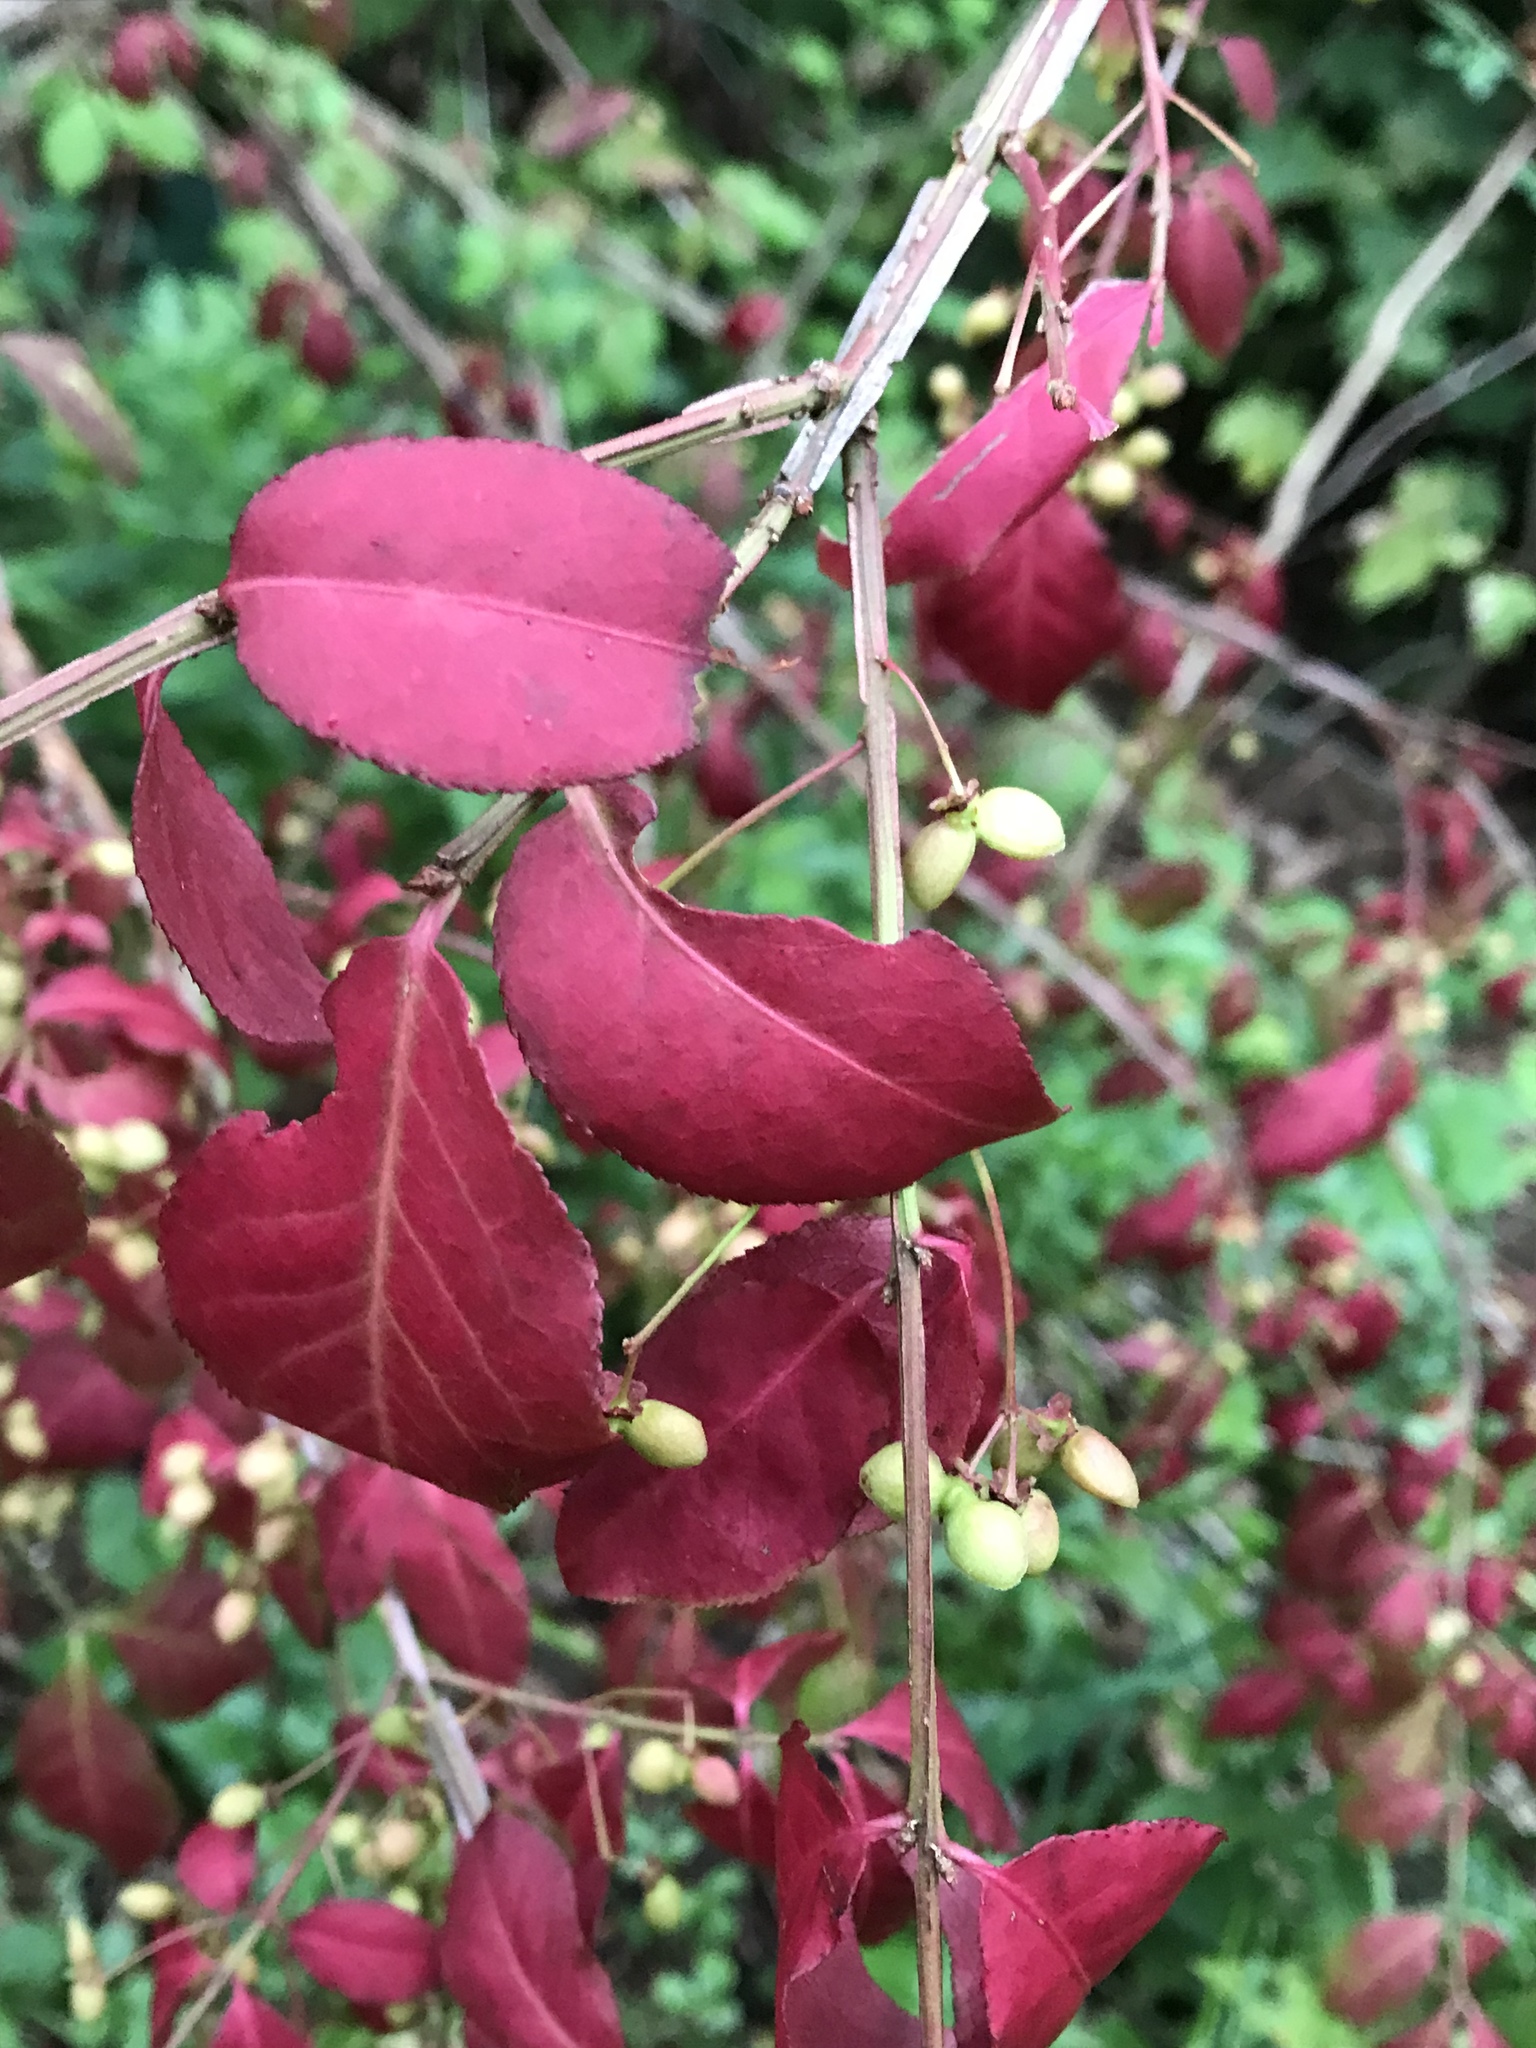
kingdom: Plantae
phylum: Tracheophyta
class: Magnoliopsida
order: Celastrales
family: Celastraceae
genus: Euonymus
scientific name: Euonymus alatus
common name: Winged euonymus
